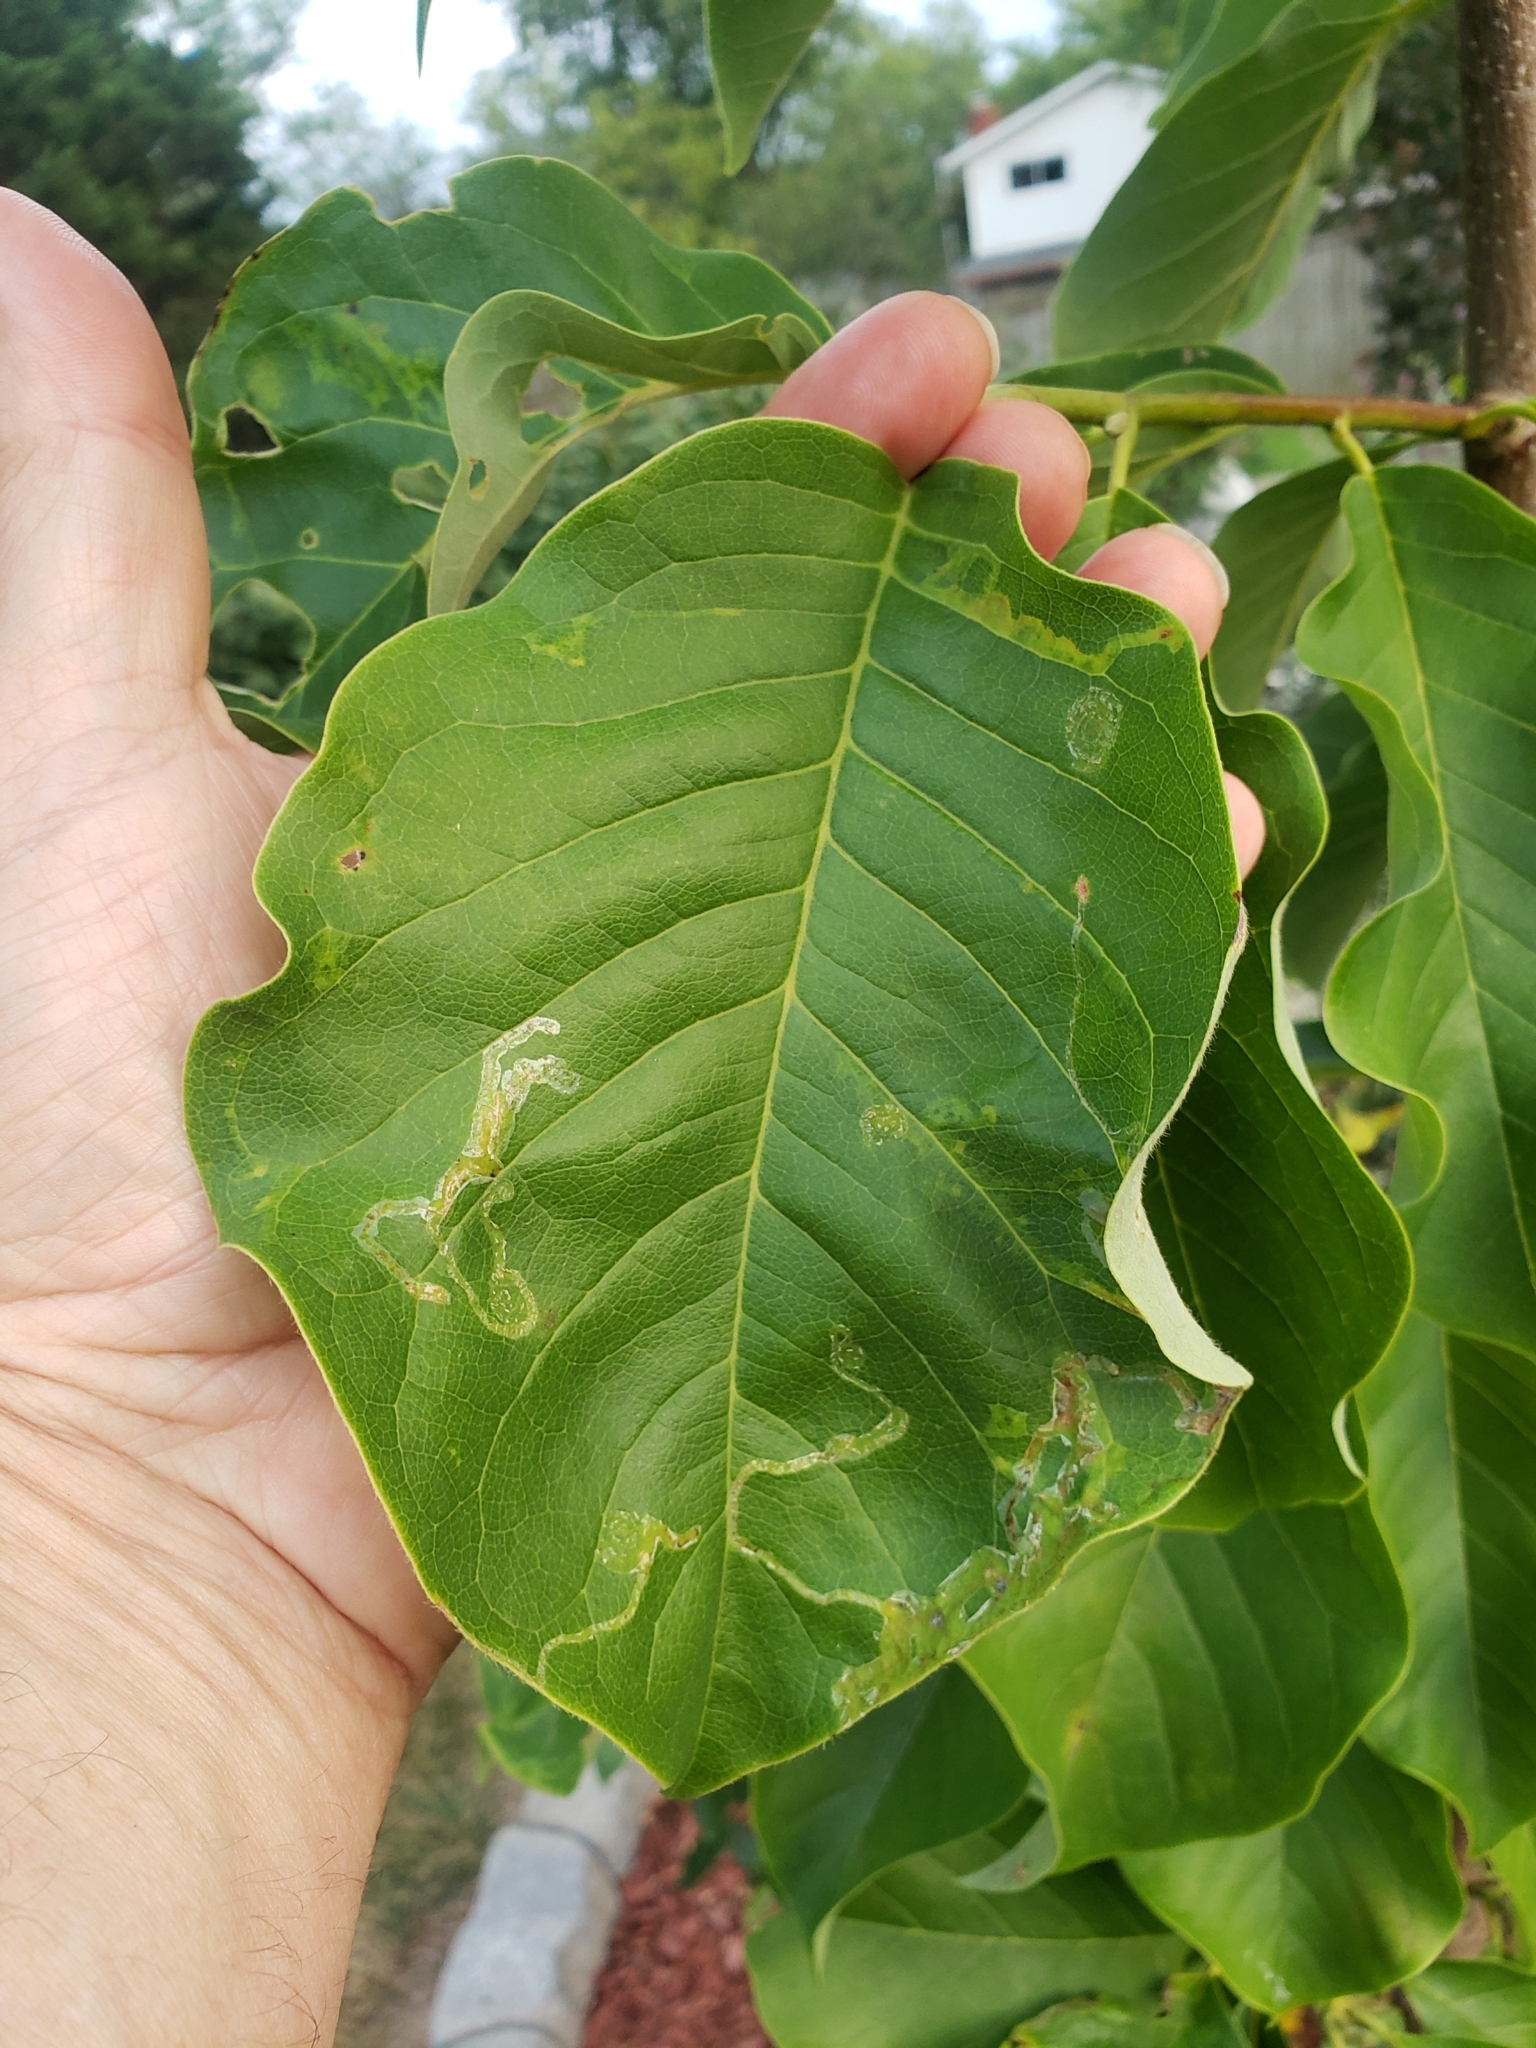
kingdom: Animalia
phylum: Arthropoda
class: Insecta
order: Lepidoptera
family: Gracillariidae
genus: Phyllocnistis
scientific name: Phyllocnistis liriodendronella
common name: Tulip tree leaf miner
